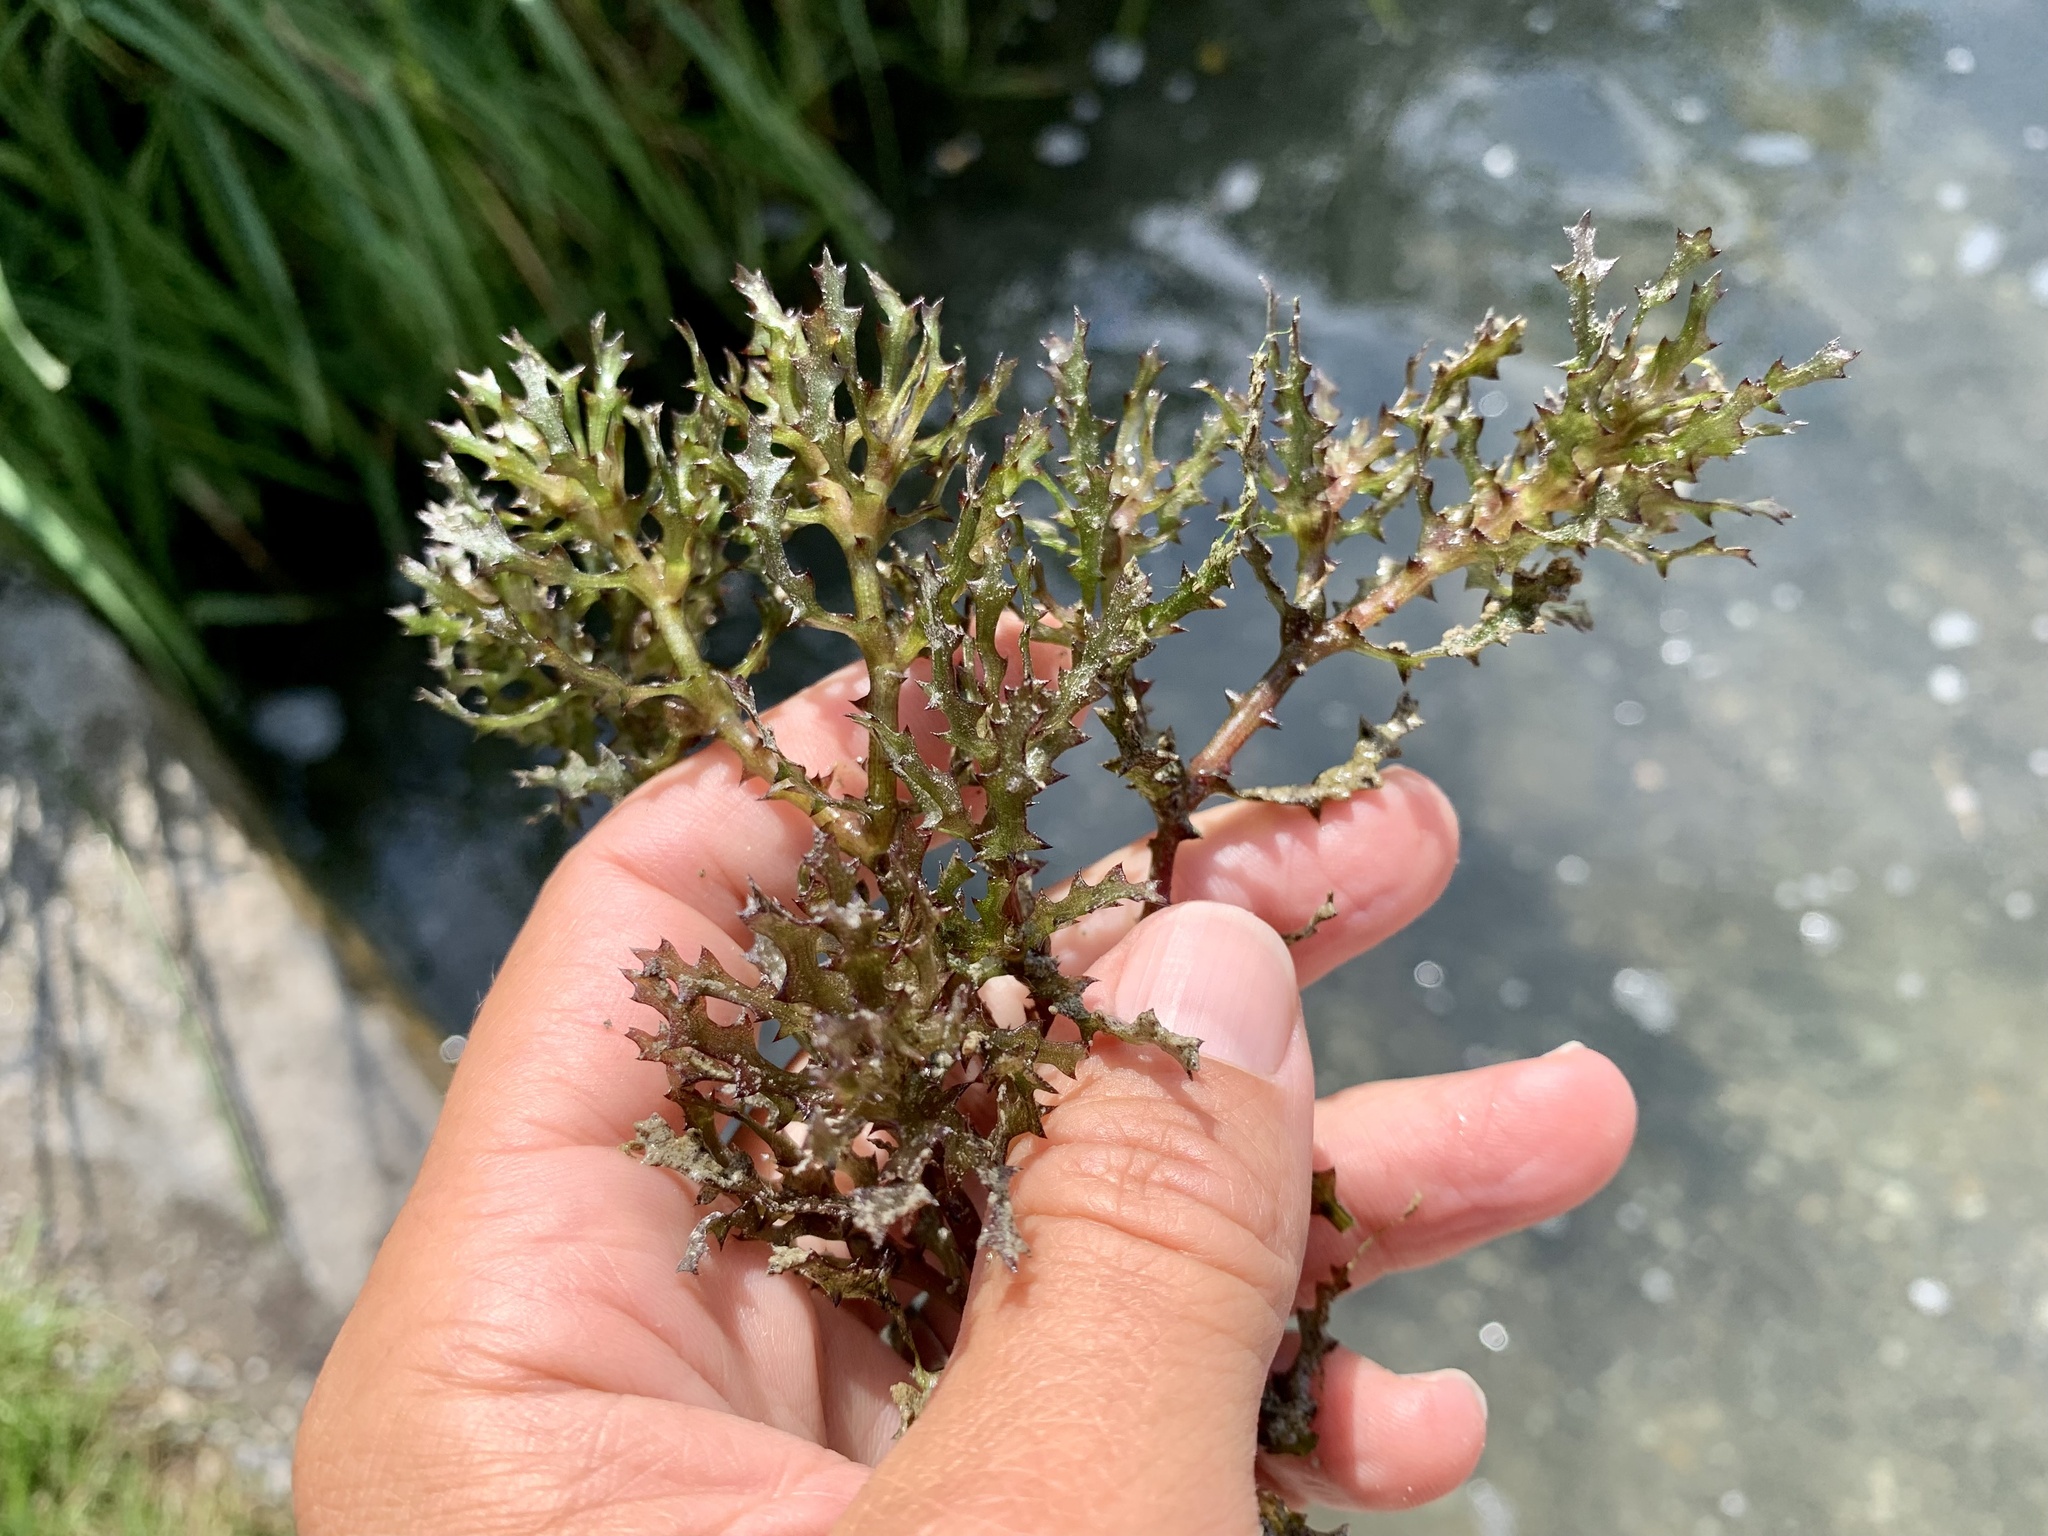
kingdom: Plantae
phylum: Tracheophyta
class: Liliopsida
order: Alismatales
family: Hydrocharitaceae
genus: Najas
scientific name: Najas marina
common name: Holly-leaved naiad
